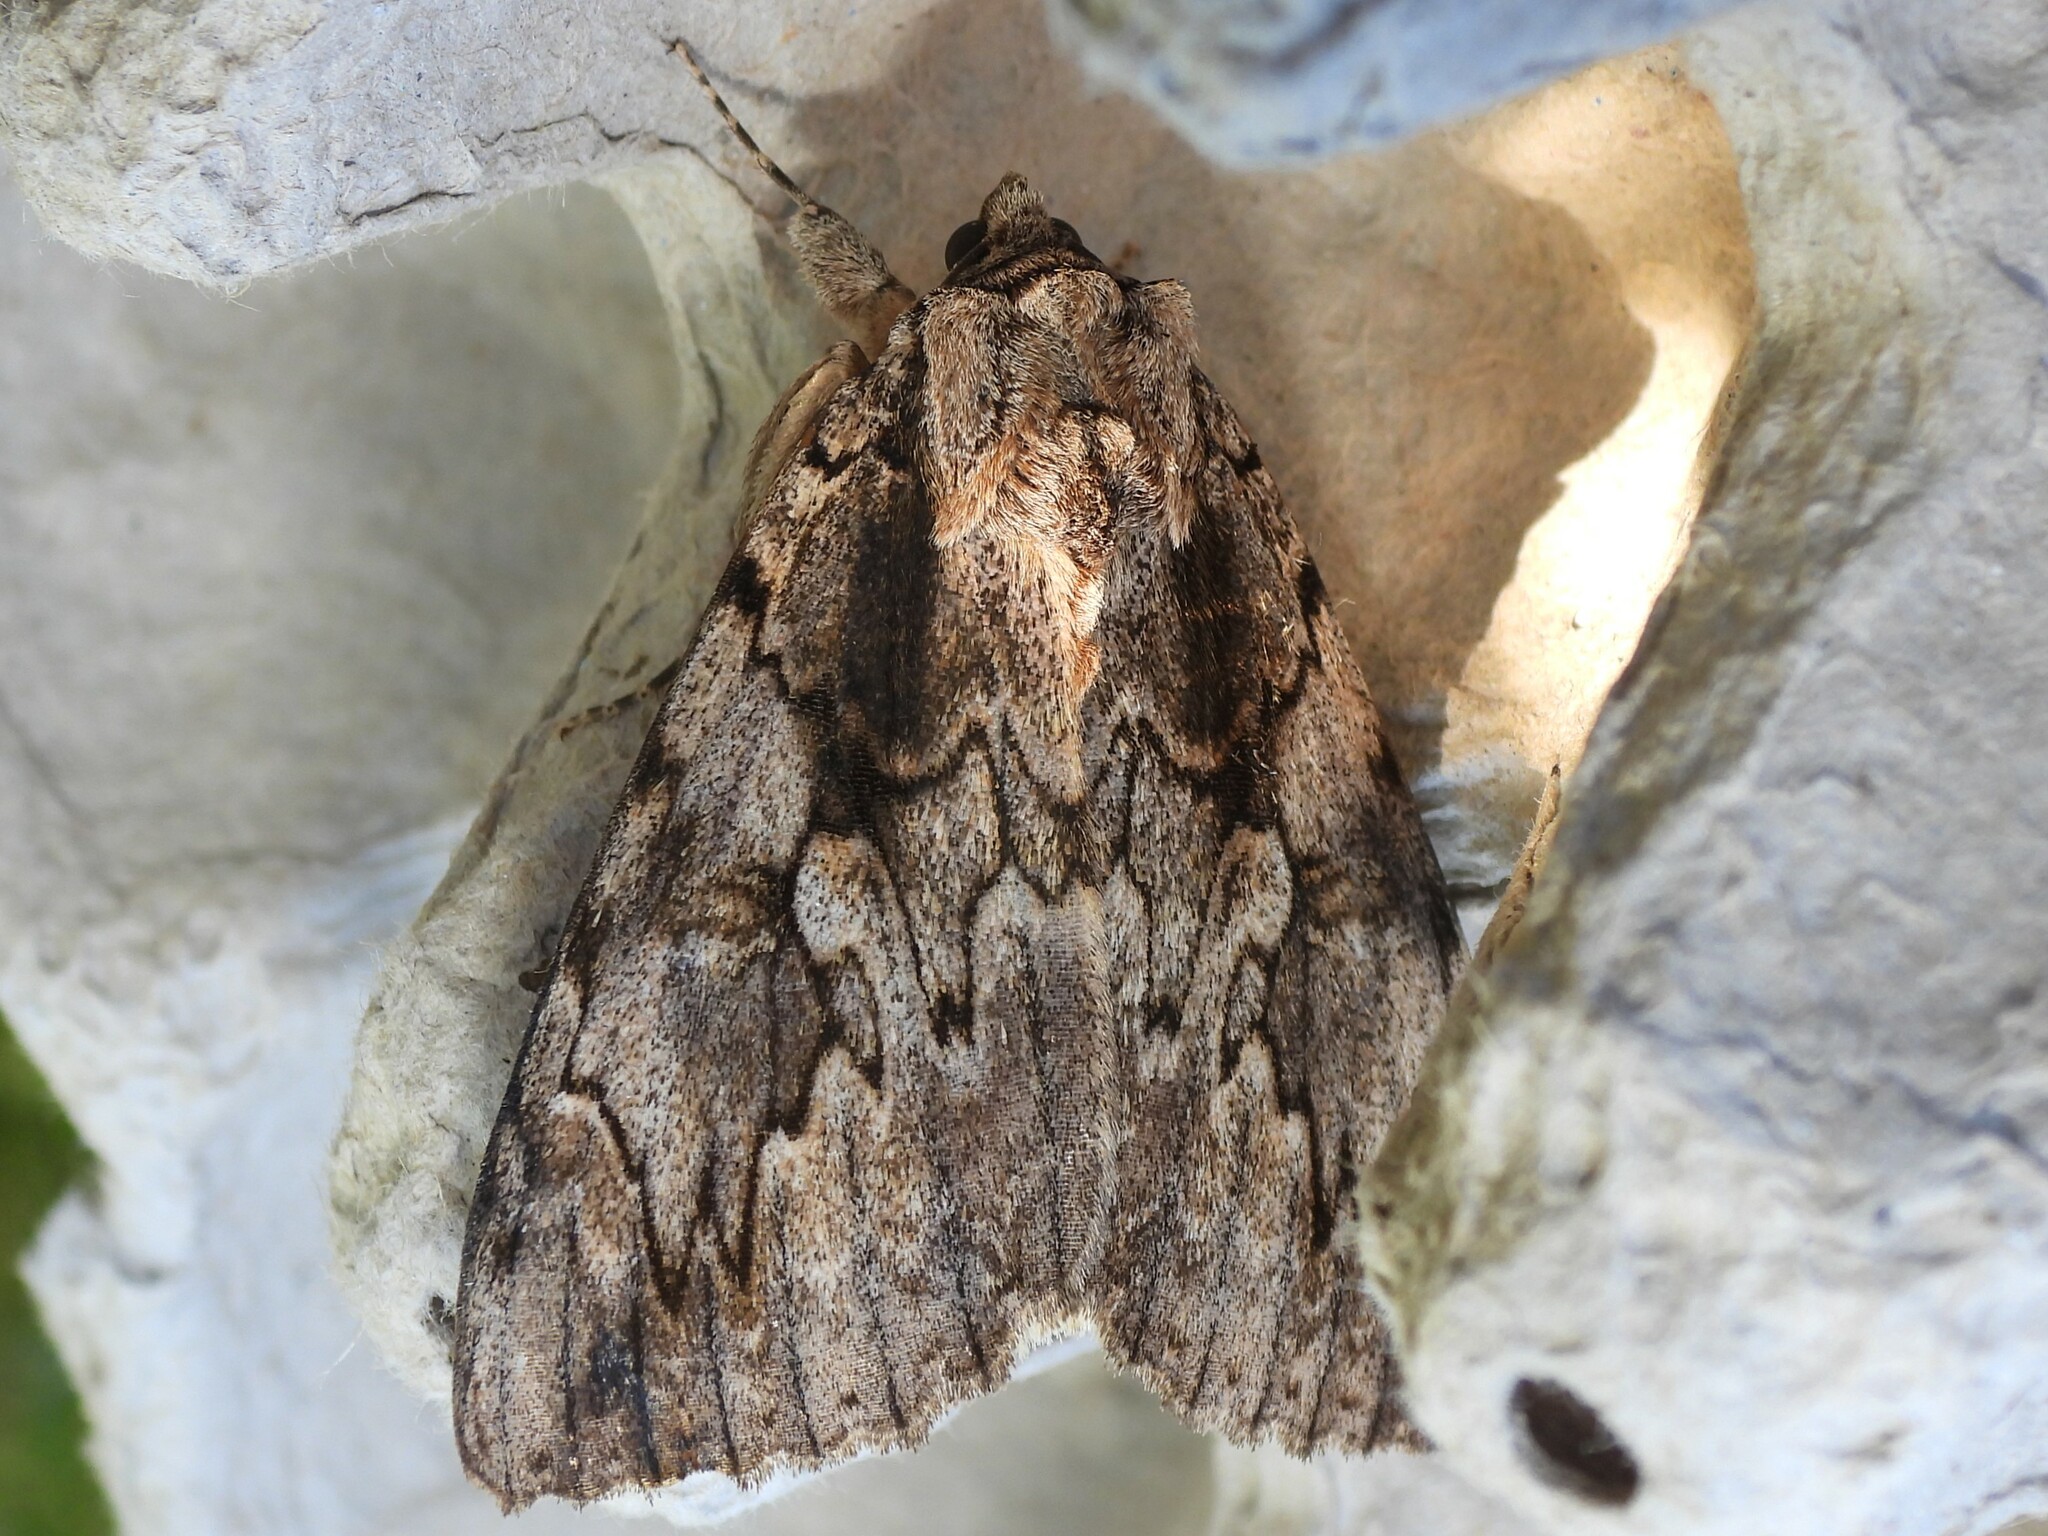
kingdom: Animalia
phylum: Arthropoda
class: Insecta
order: Lepidoptera
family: Erebidae
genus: Catocala
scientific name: Catocala amatrix
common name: Sweetheart underwing
